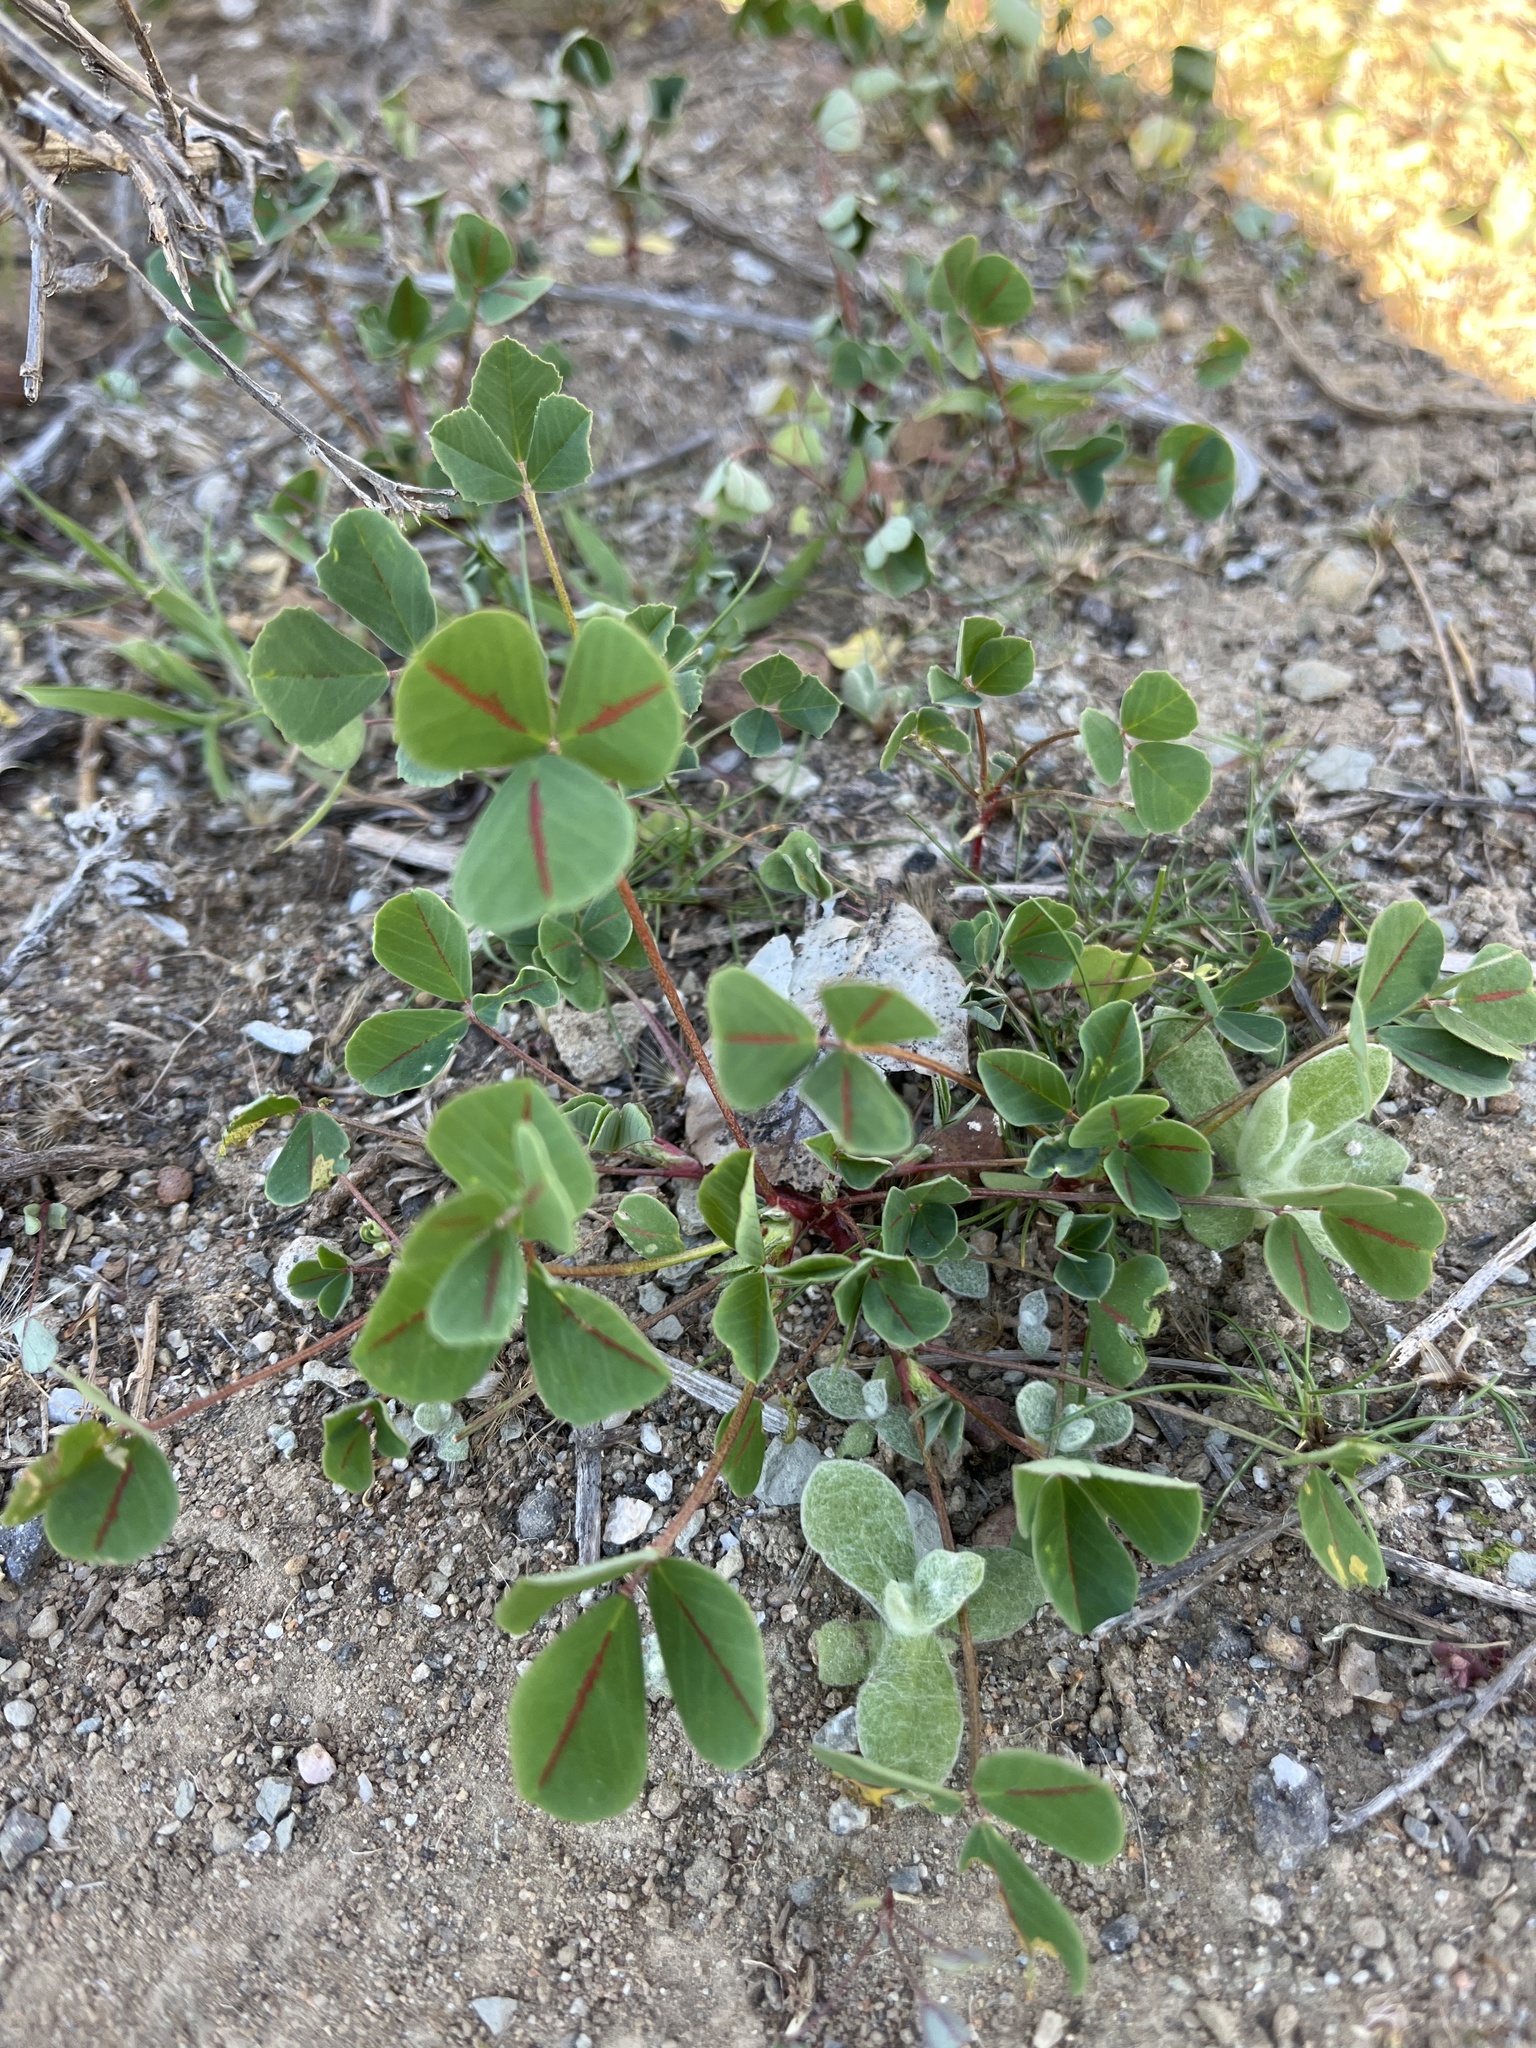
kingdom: Plantae
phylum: Tracheophyta
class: Magnoliopsida
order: Fabales
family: Fabaceae
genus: Melilotus
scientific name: Melilotus indicus
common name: Small melilot
